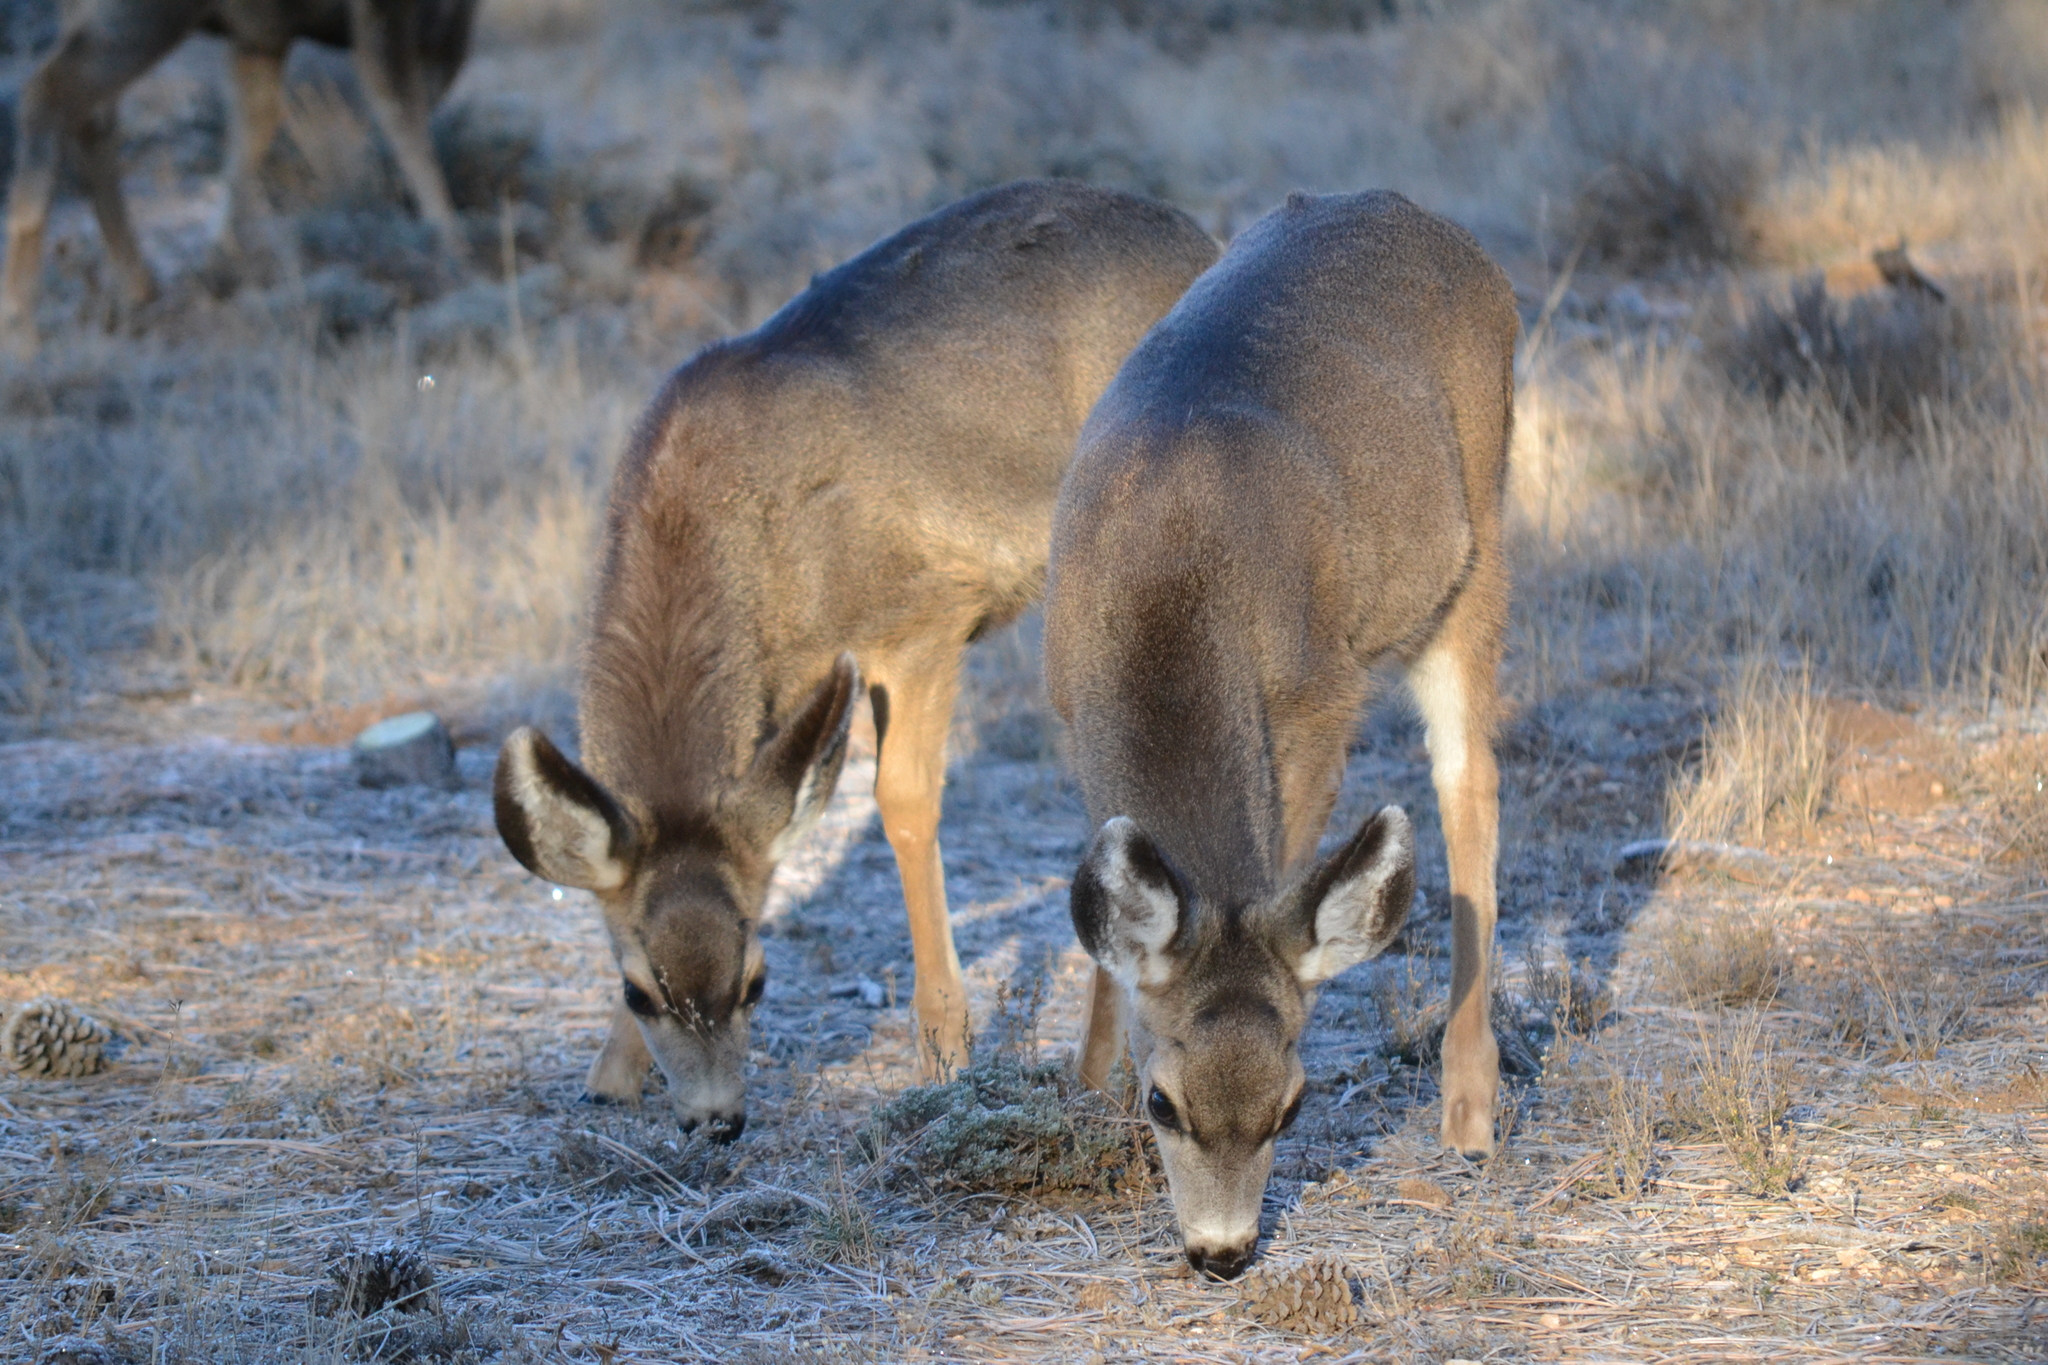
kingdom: Animalia
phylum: Chordata
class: Mammalia
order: Artiodactyla
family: Cervidae
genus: Odocoileus
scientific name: Odocoileus hemionus
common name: Mule deer
